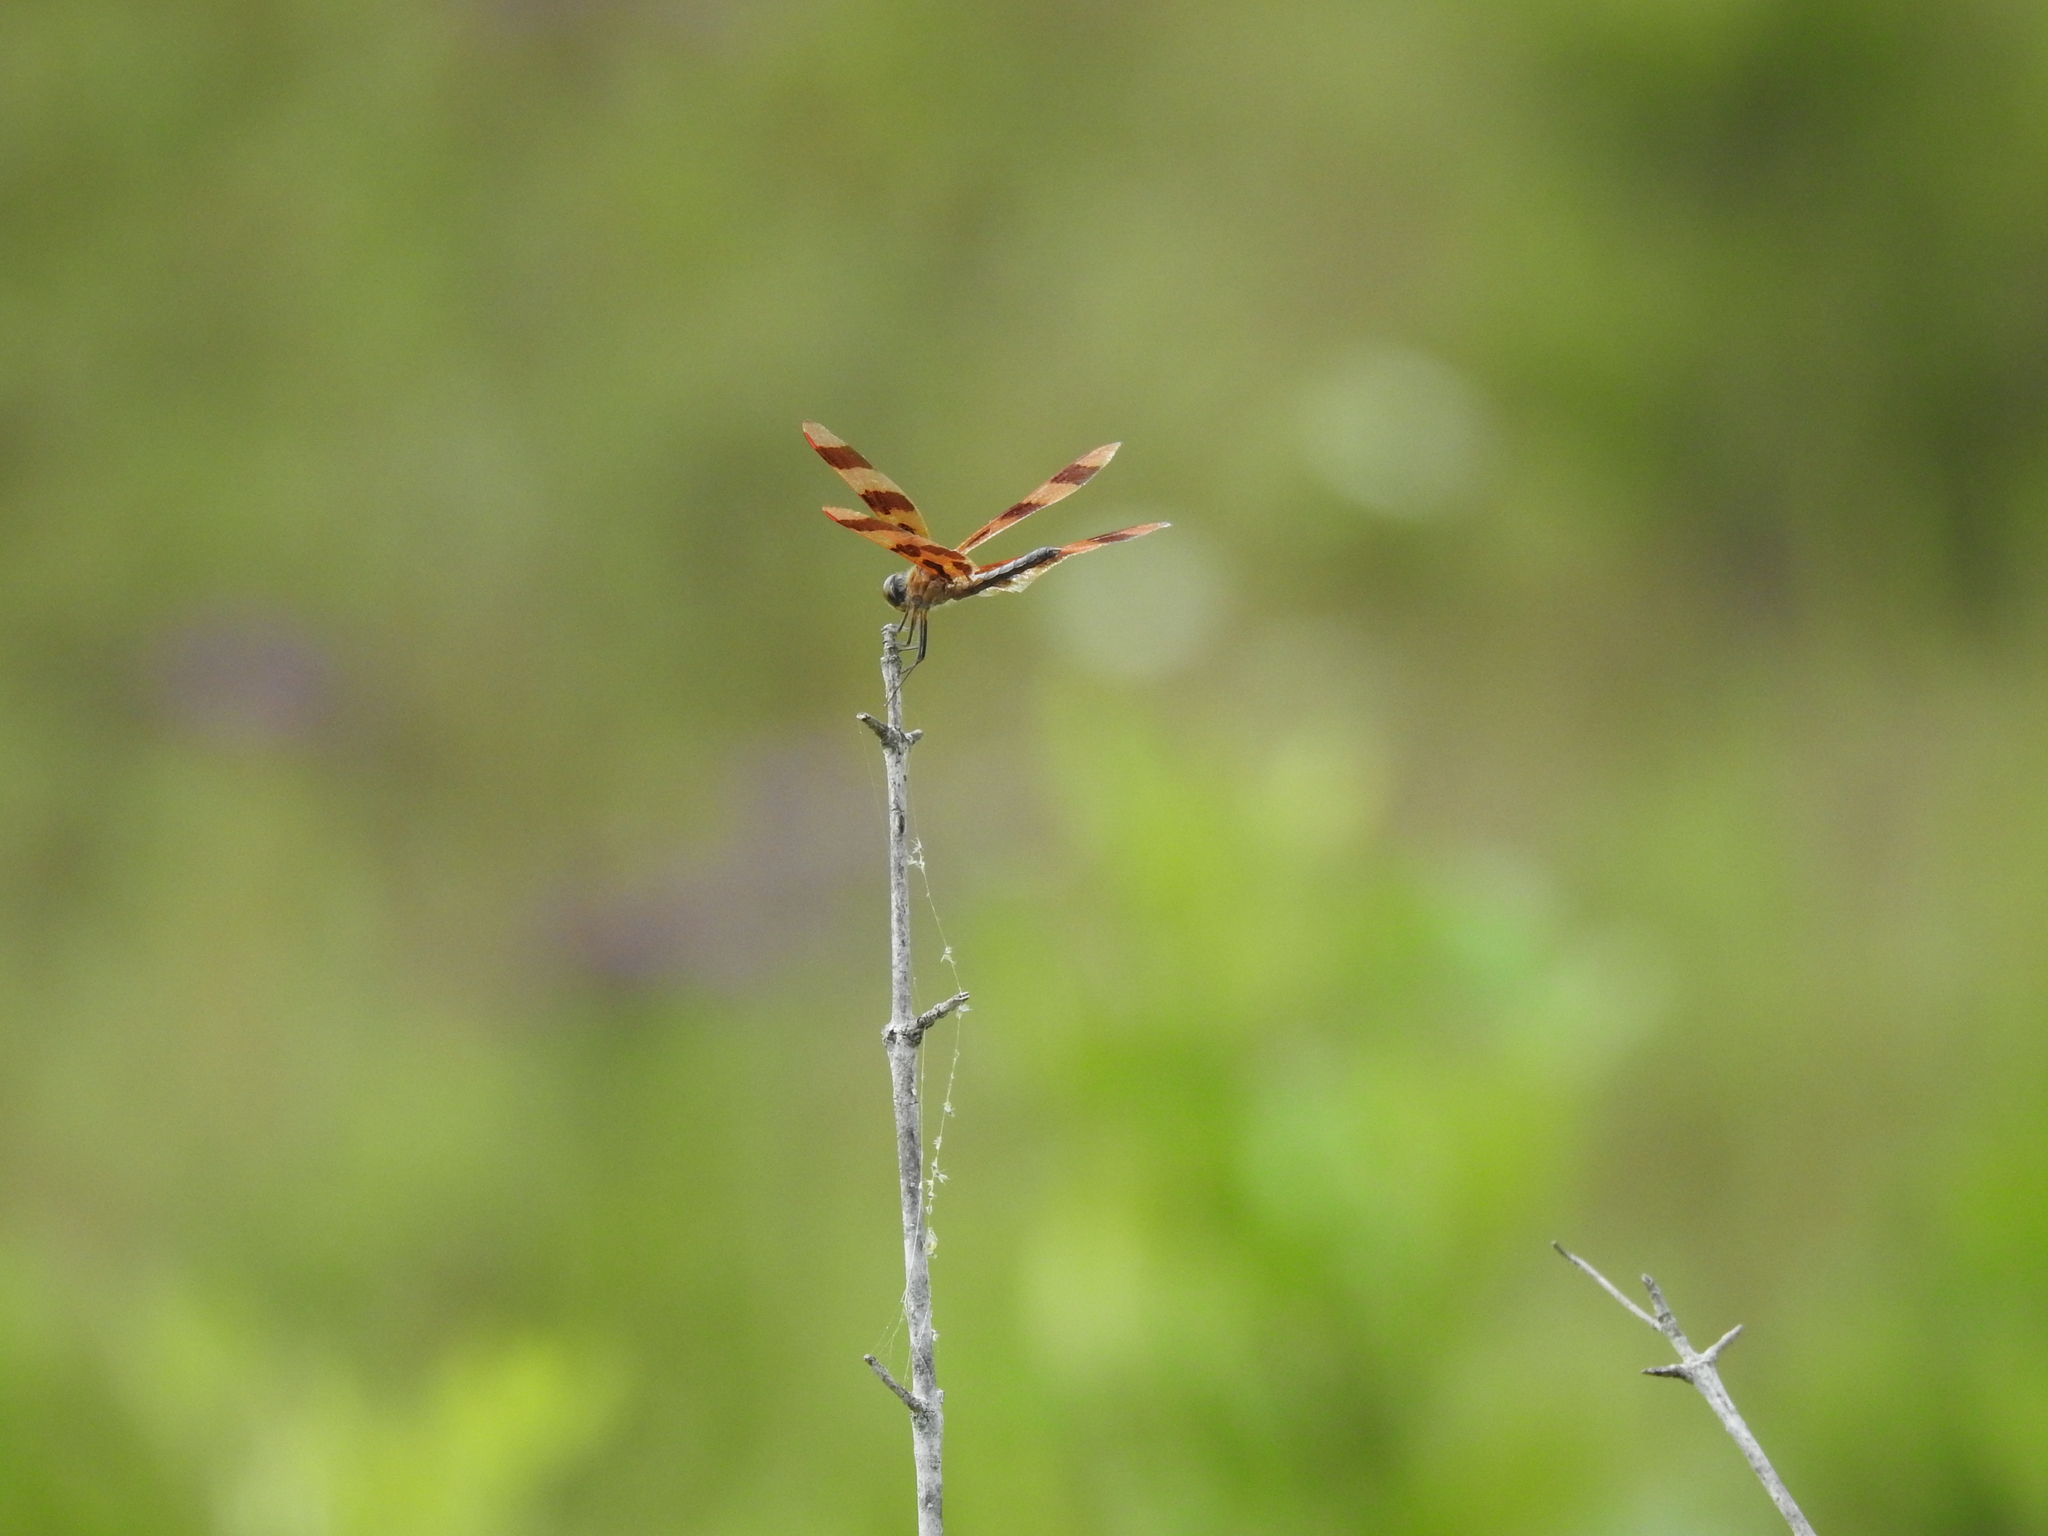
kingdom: Animalia
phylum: Arthropoda
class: Insecta
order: Odonata
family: Libellulidae
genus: Celithemis
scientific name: Celithemis eponina
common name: Halloween pennant
